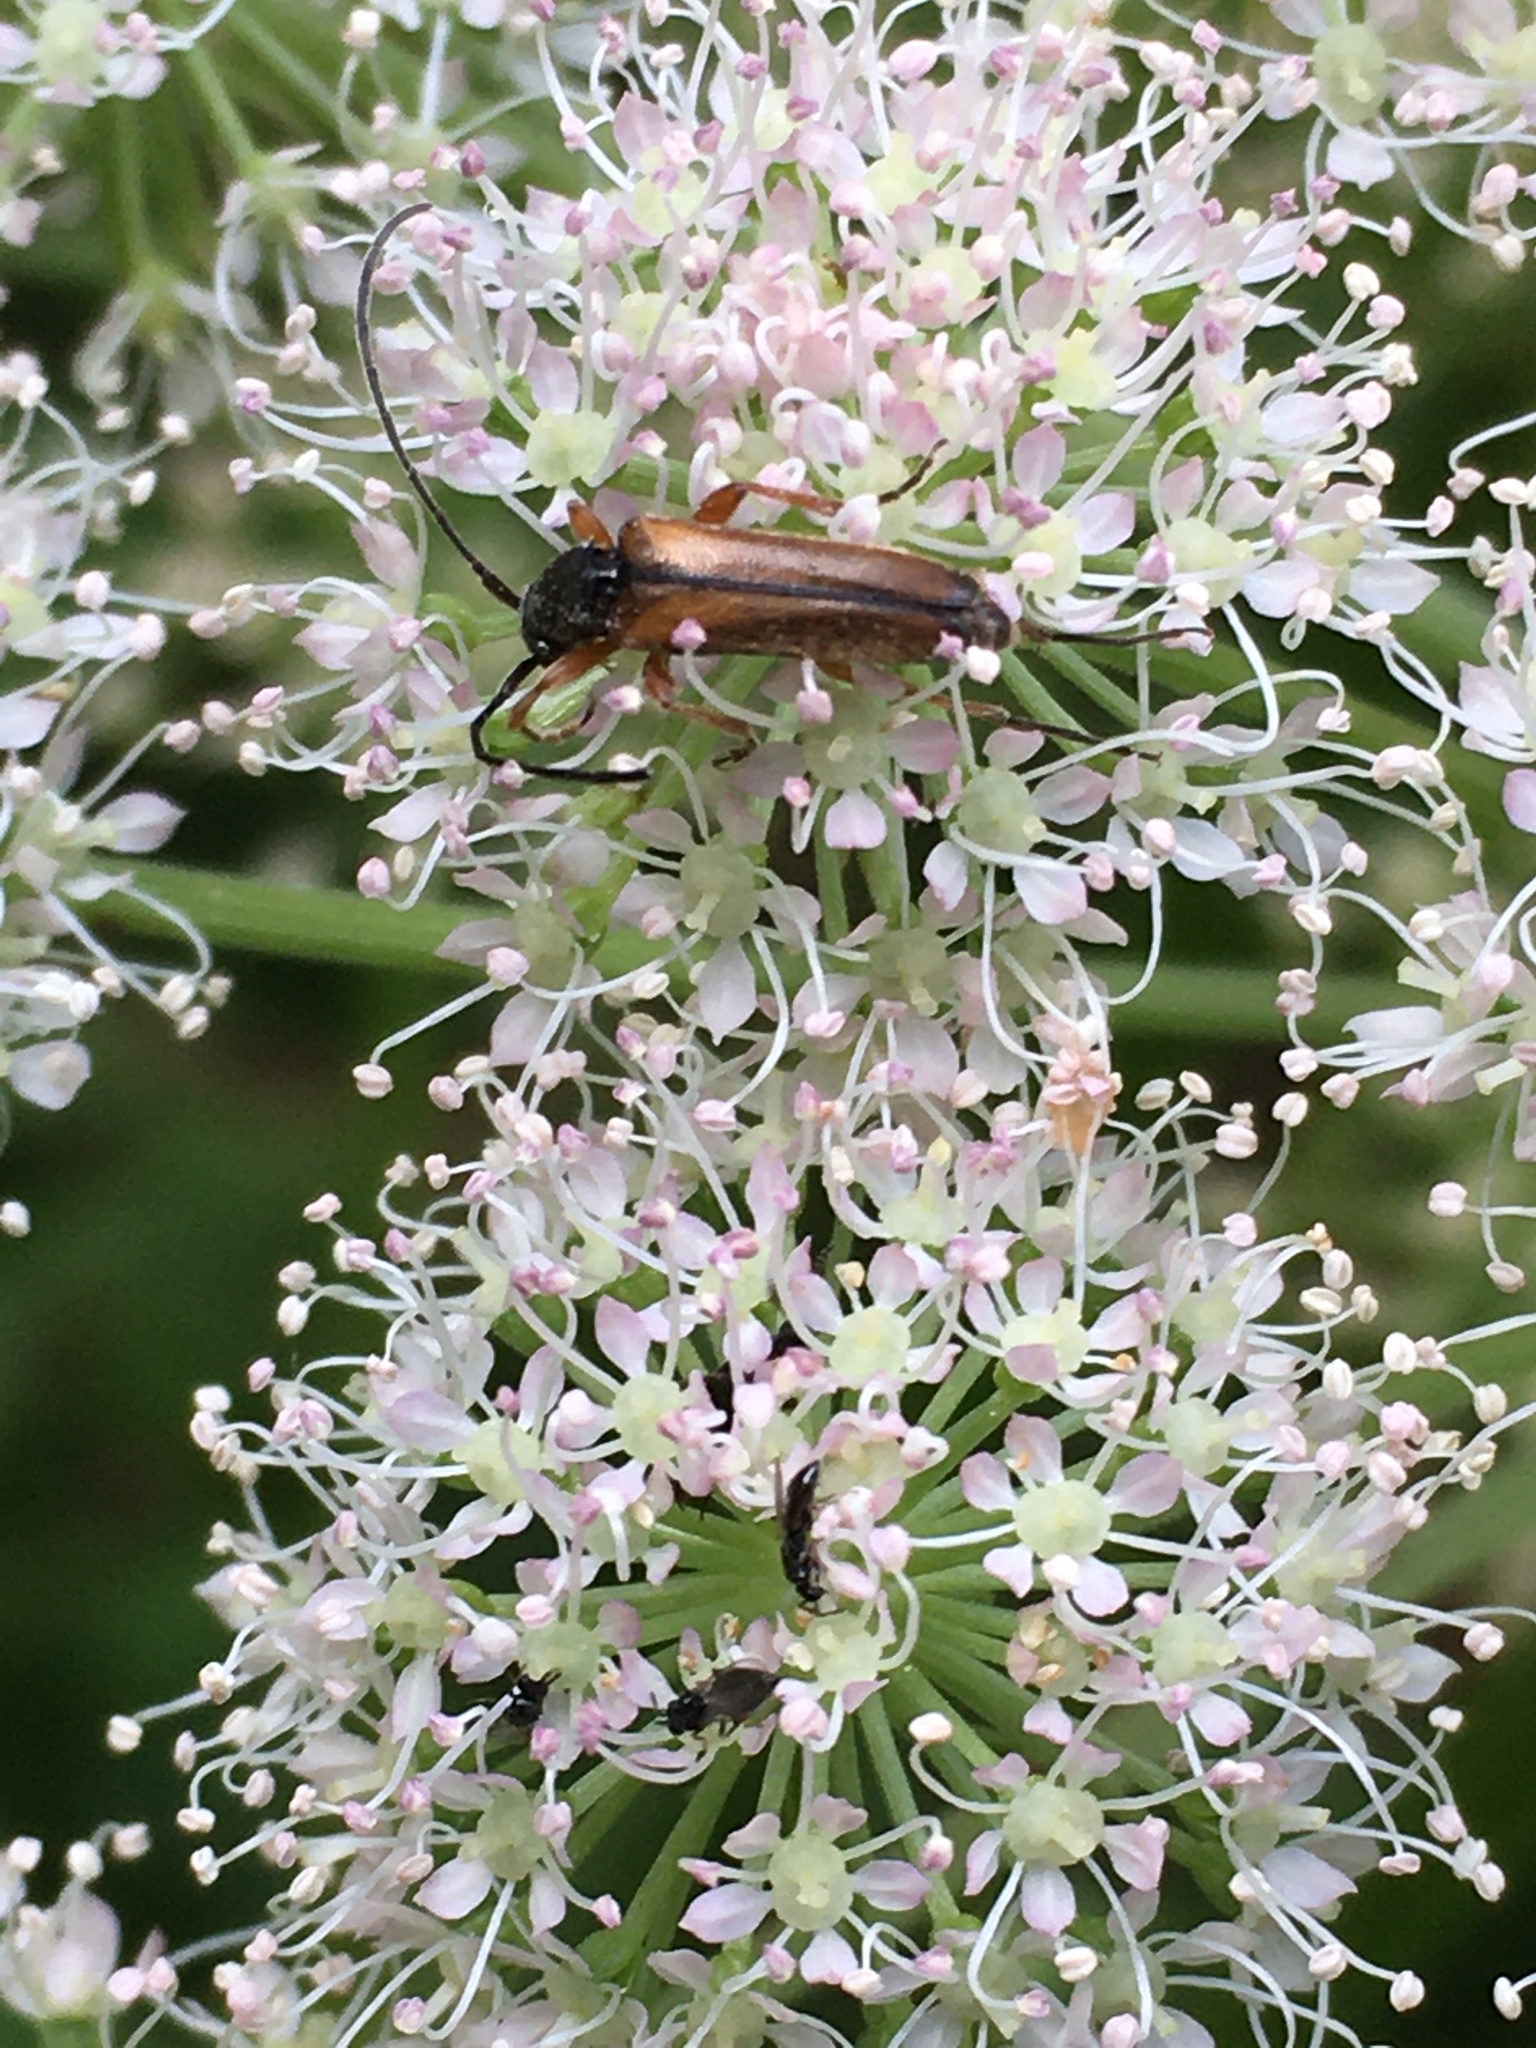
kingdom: Animalia
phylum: Arthropoda
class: Insecta
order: Coleoptera
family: Cerambycidae
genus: Alosterna
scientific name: Alosterna tabacicolor
